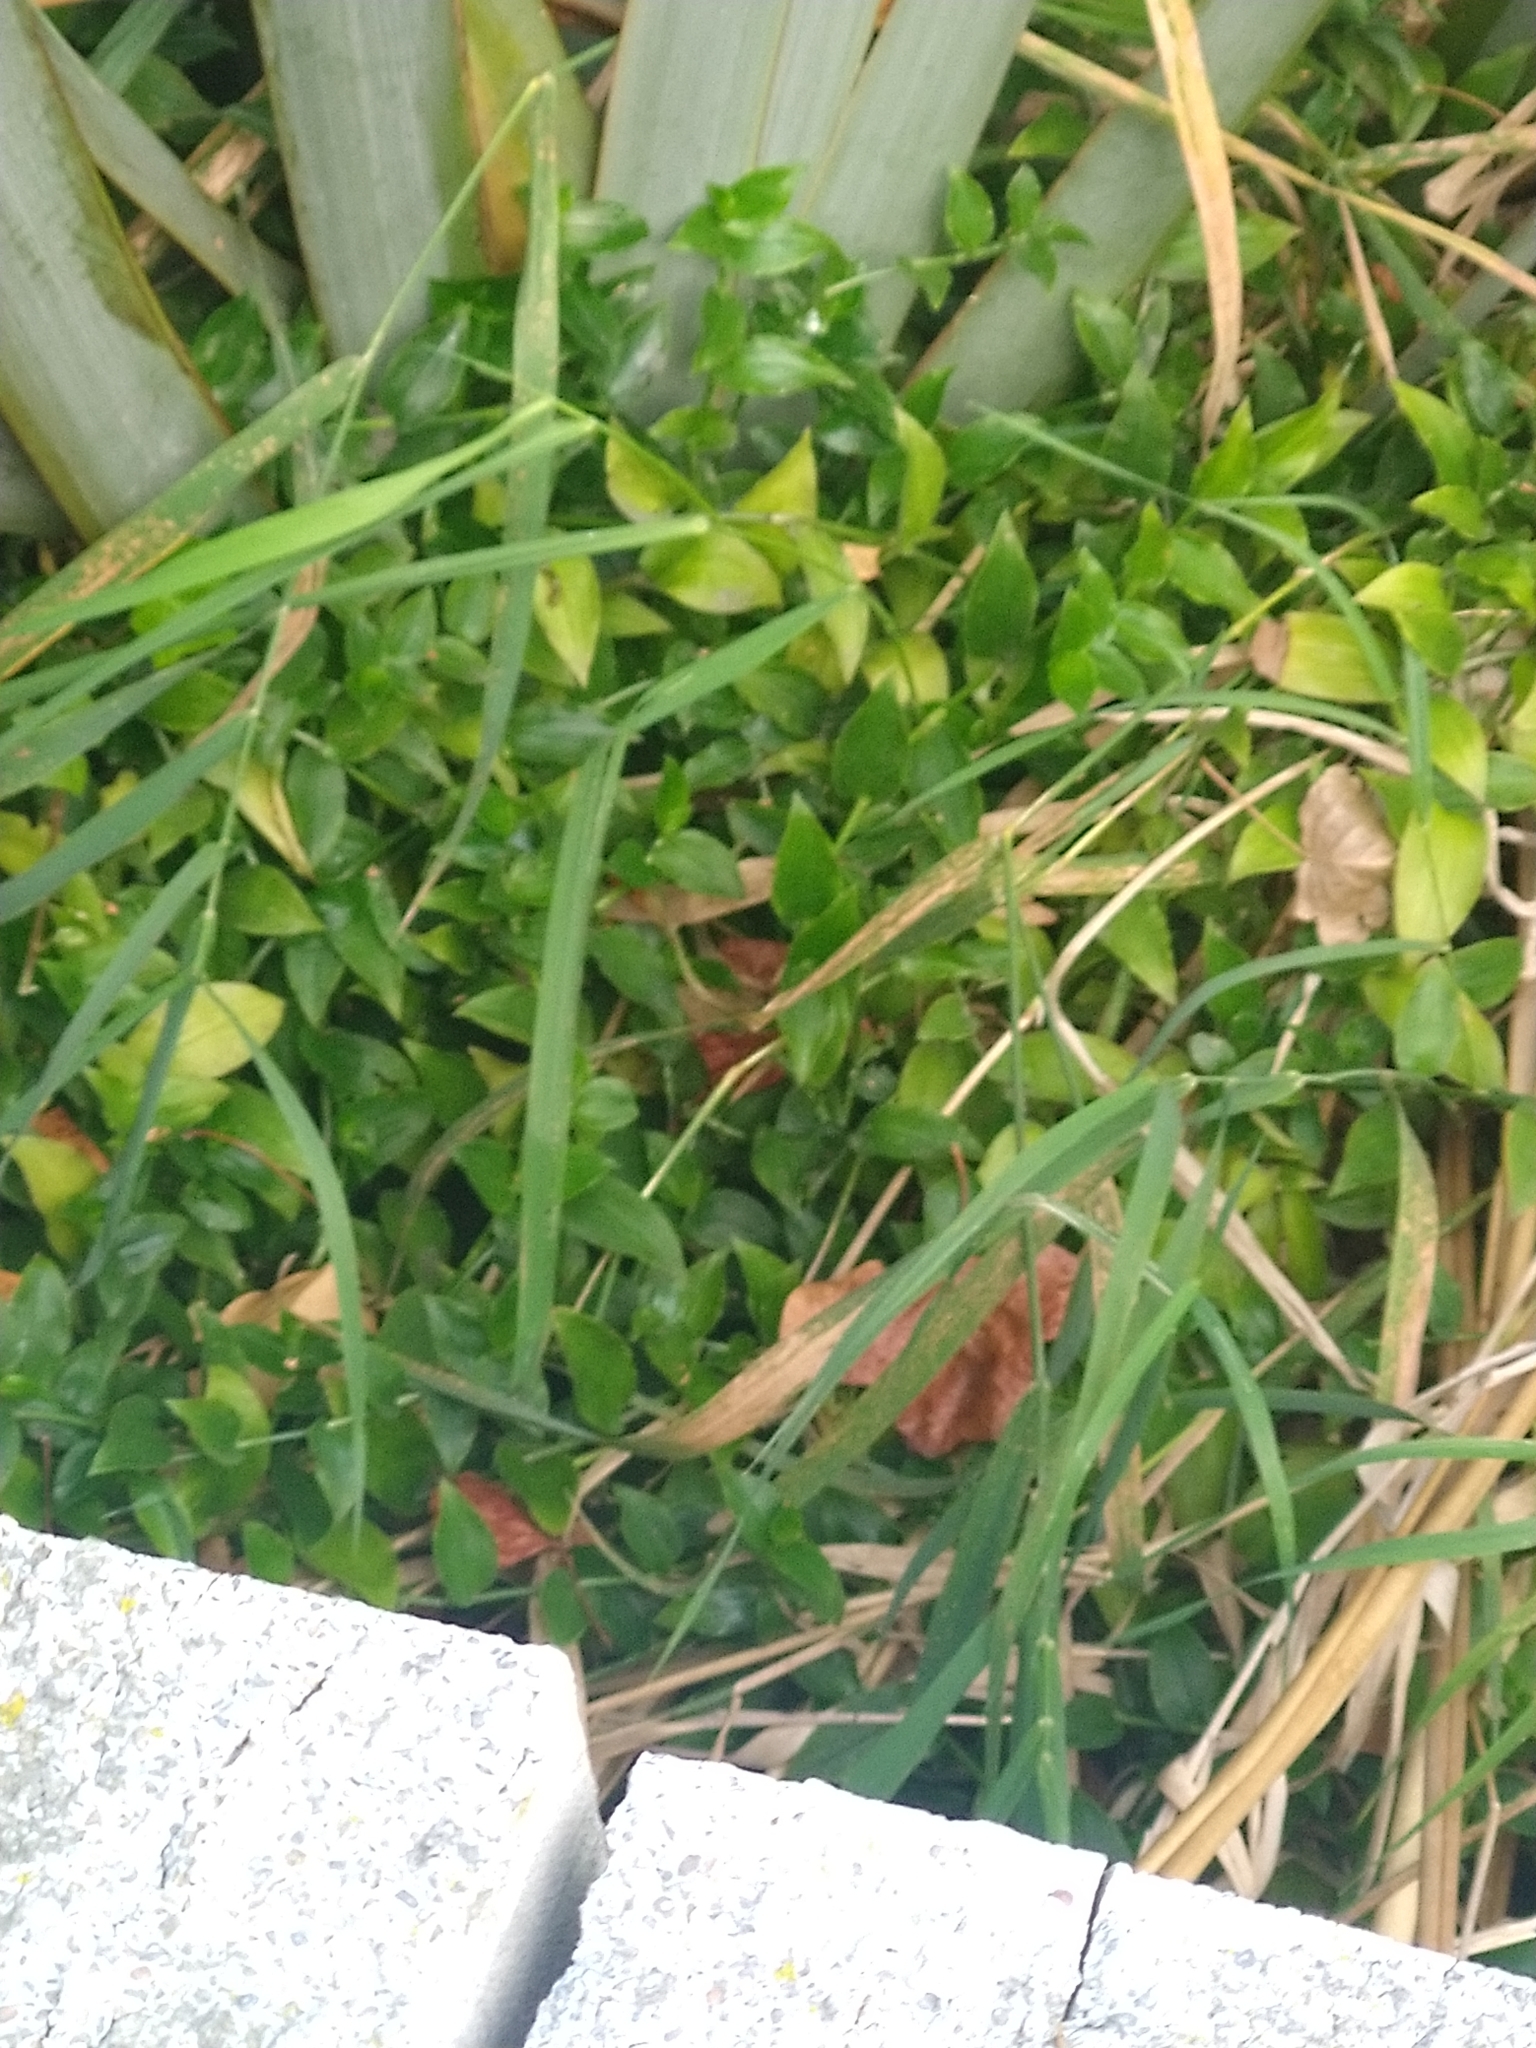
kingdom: Plantae
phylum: Tracheophyta
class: Liliopsida
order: Commelinales
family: Commelinaceae
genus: Tradescantia
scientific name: Tradescantia fluminensis
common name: Wandering-jew
